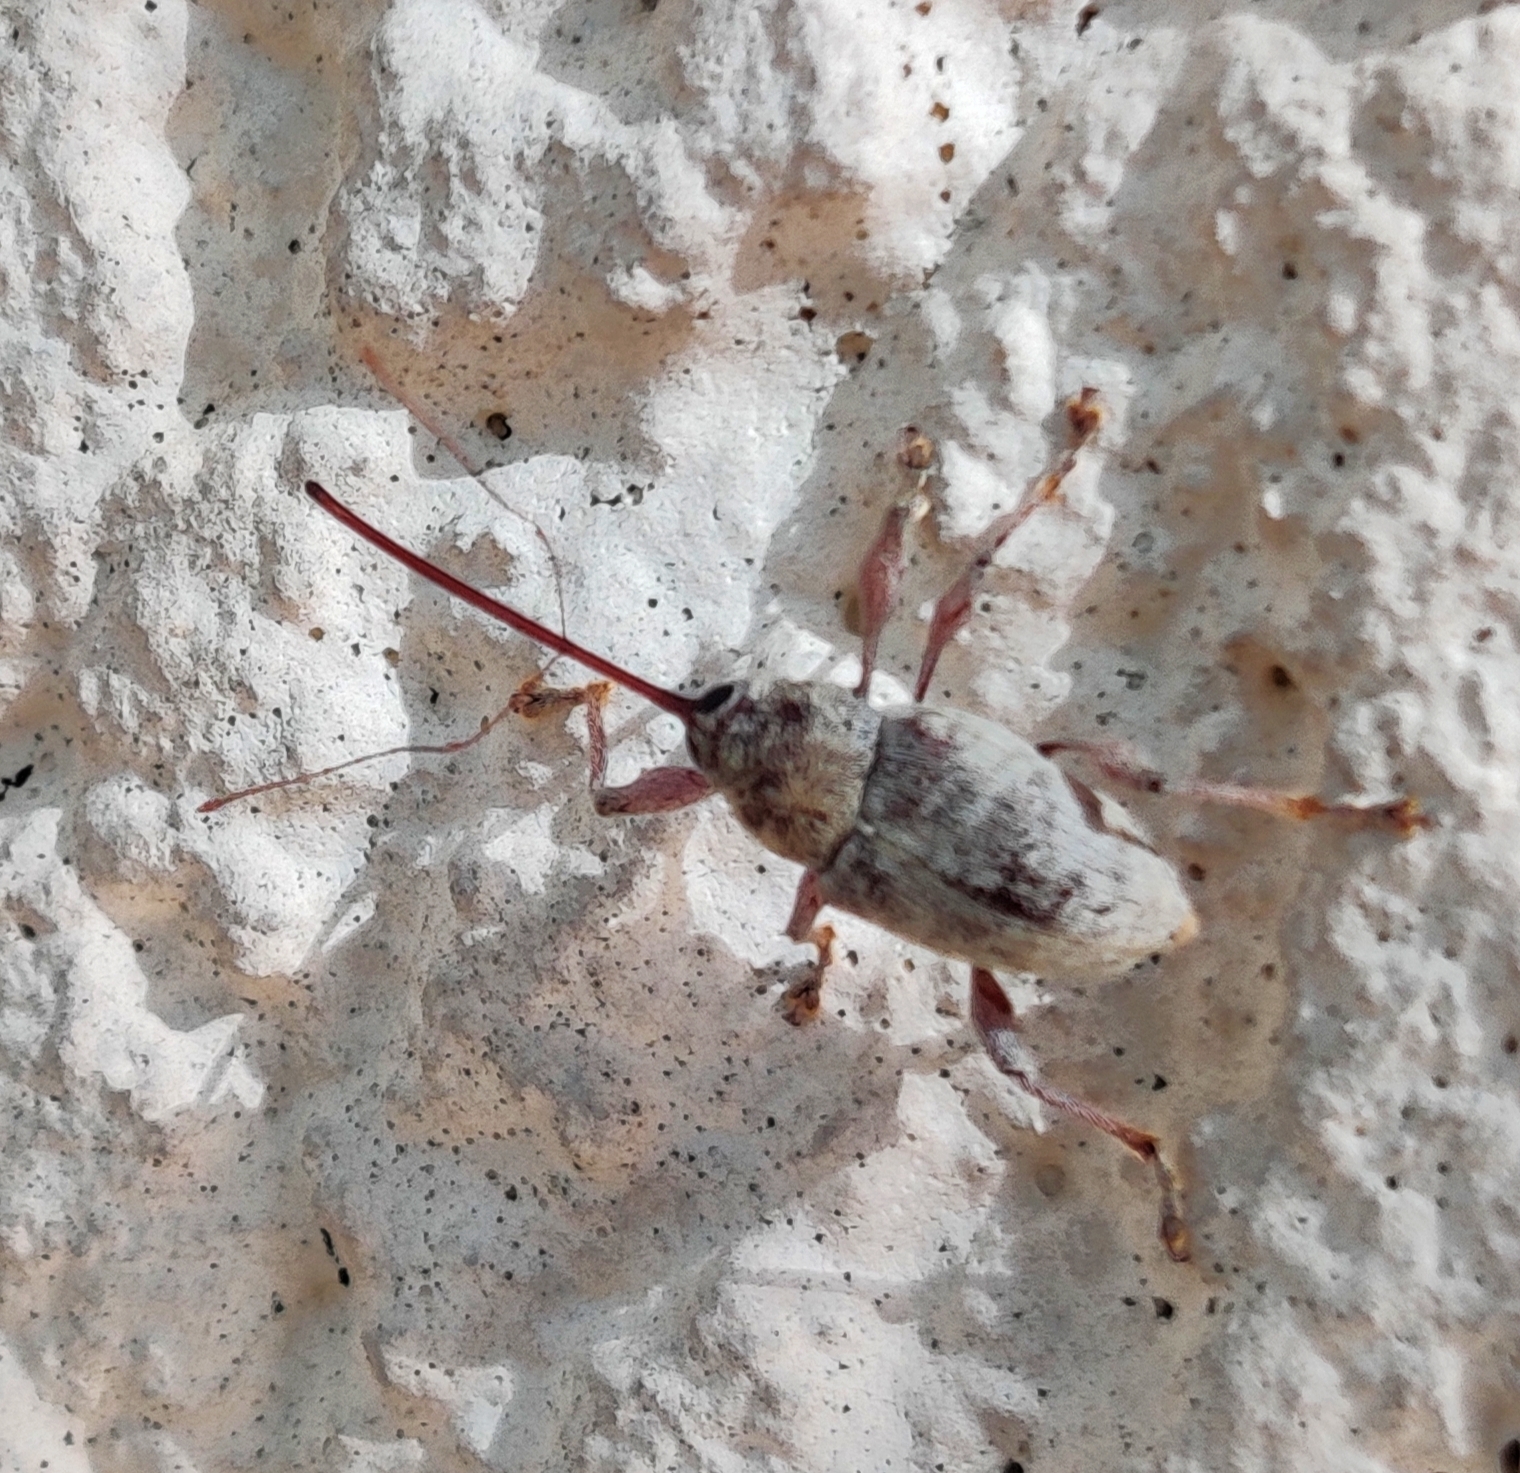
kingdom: Animalia
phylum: Arthropoda
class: Insecta
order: Coleoptera
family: Curculionidae
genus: Curculio
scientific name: Curculio elephas
